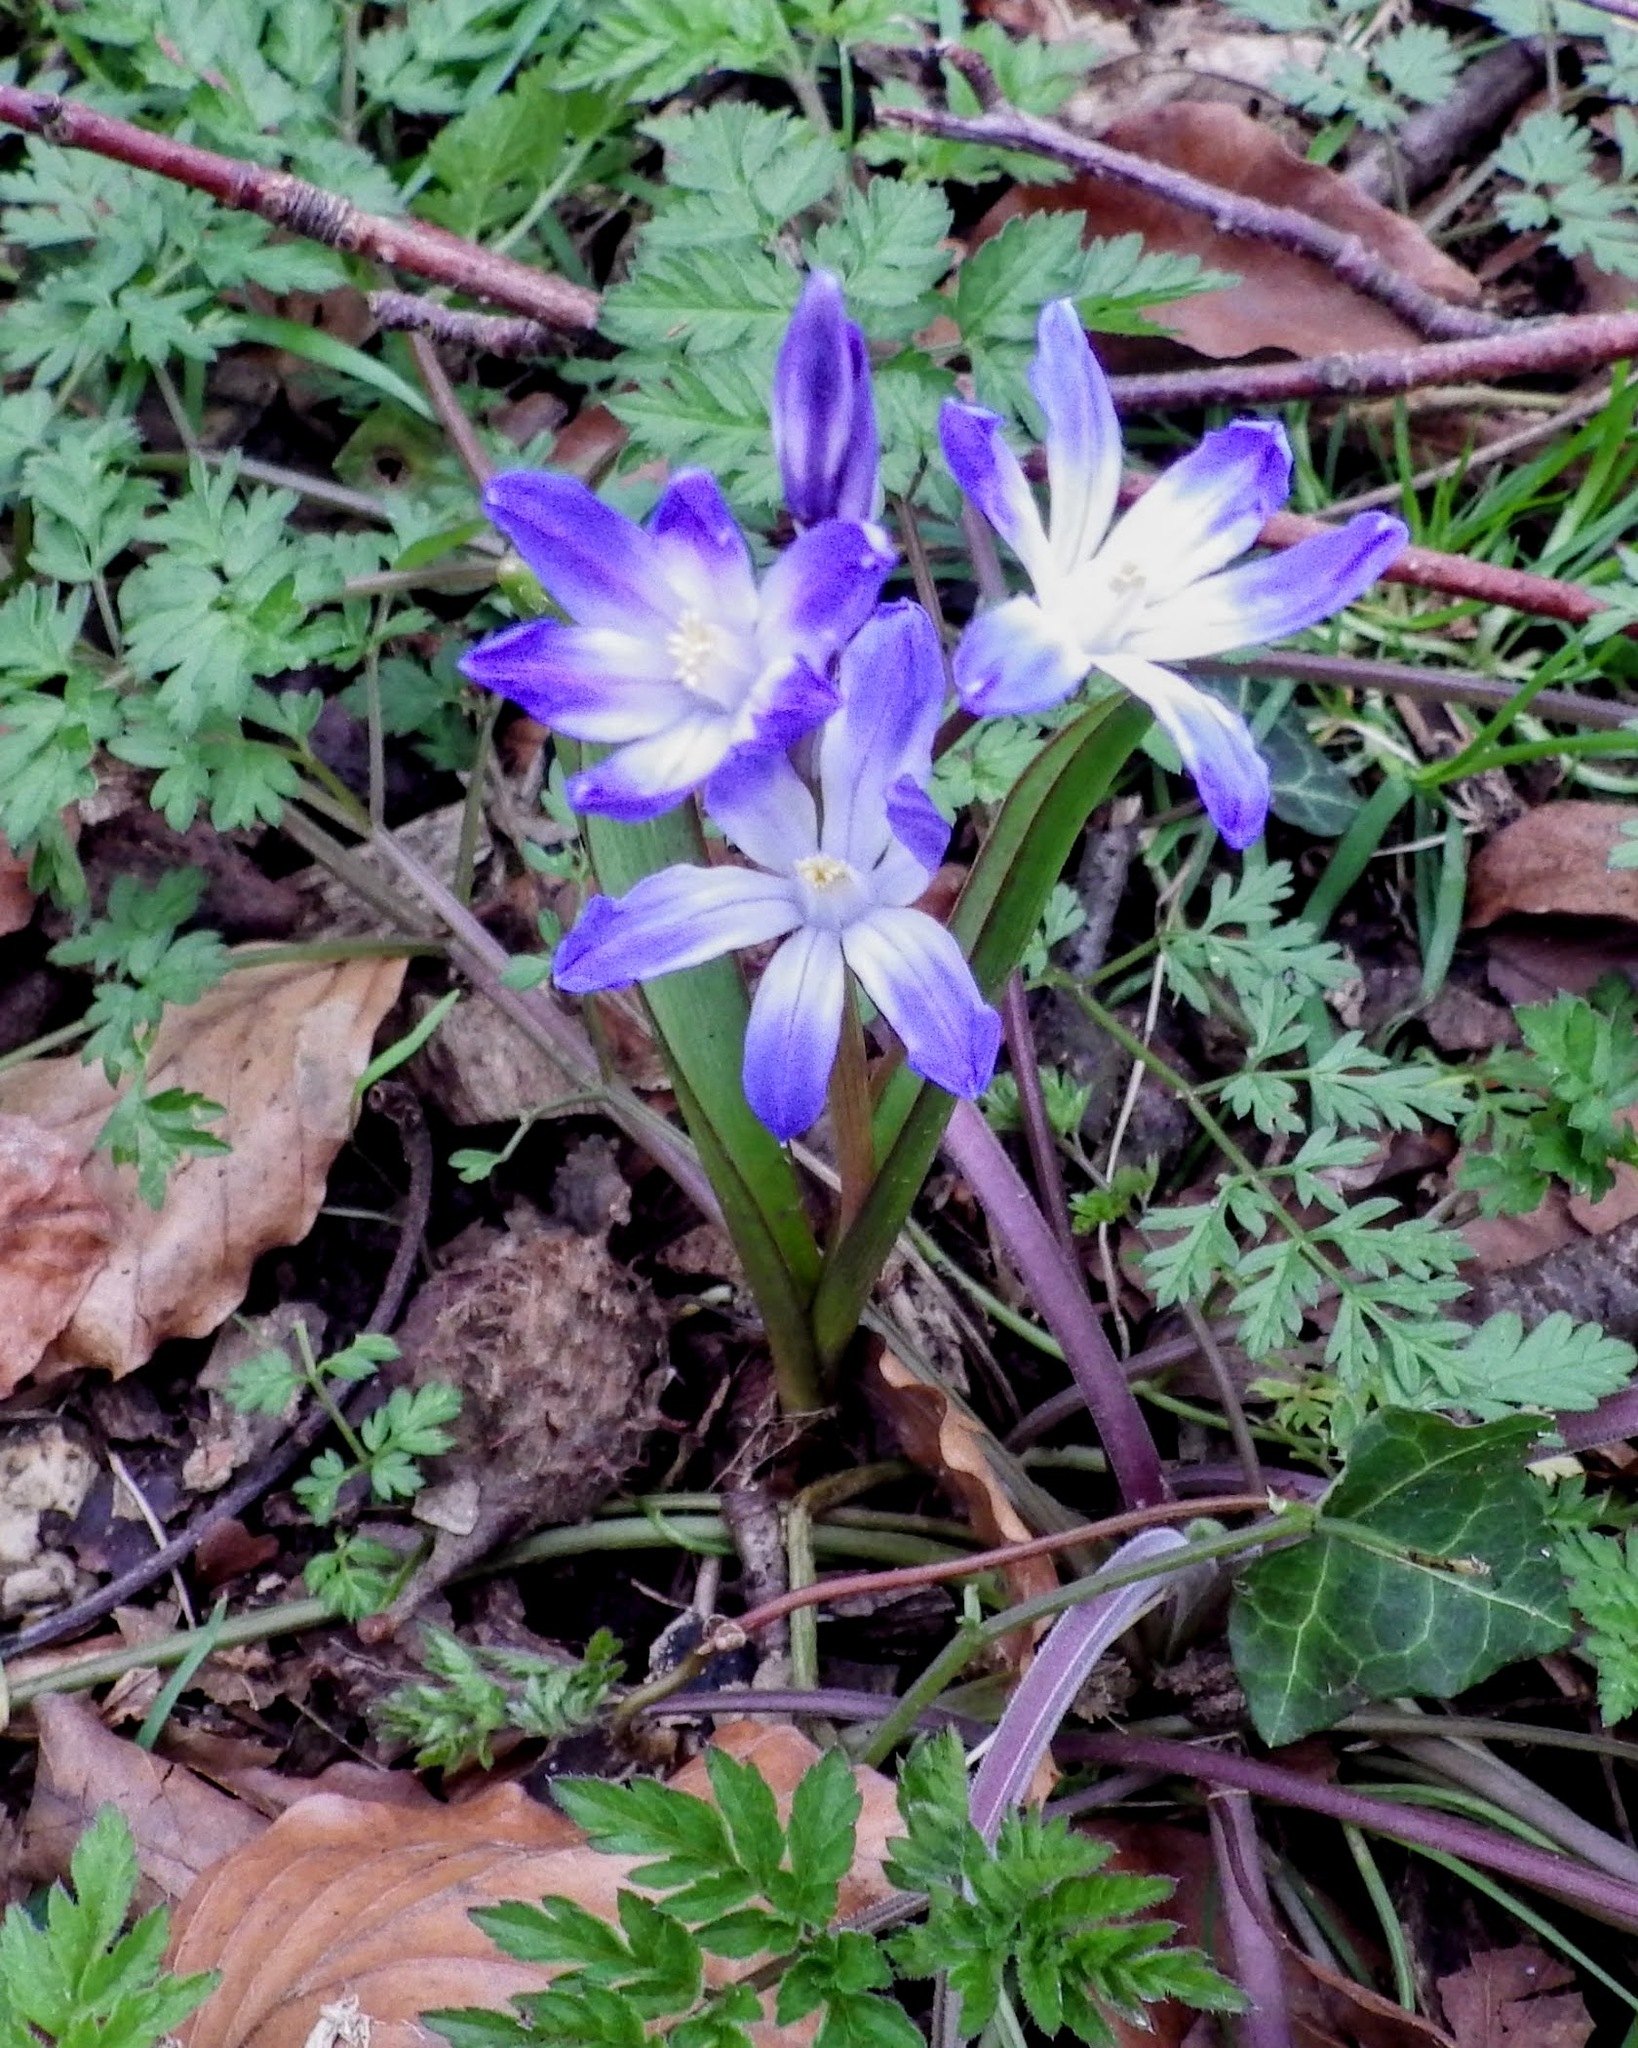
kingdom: Plantae
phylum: Tracheophyta
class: Liliopsida
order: Asparagales
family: Asparagaceae
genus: Scilla
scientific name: Scilla luciliae
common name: Boissier's glory-of-the-snow
